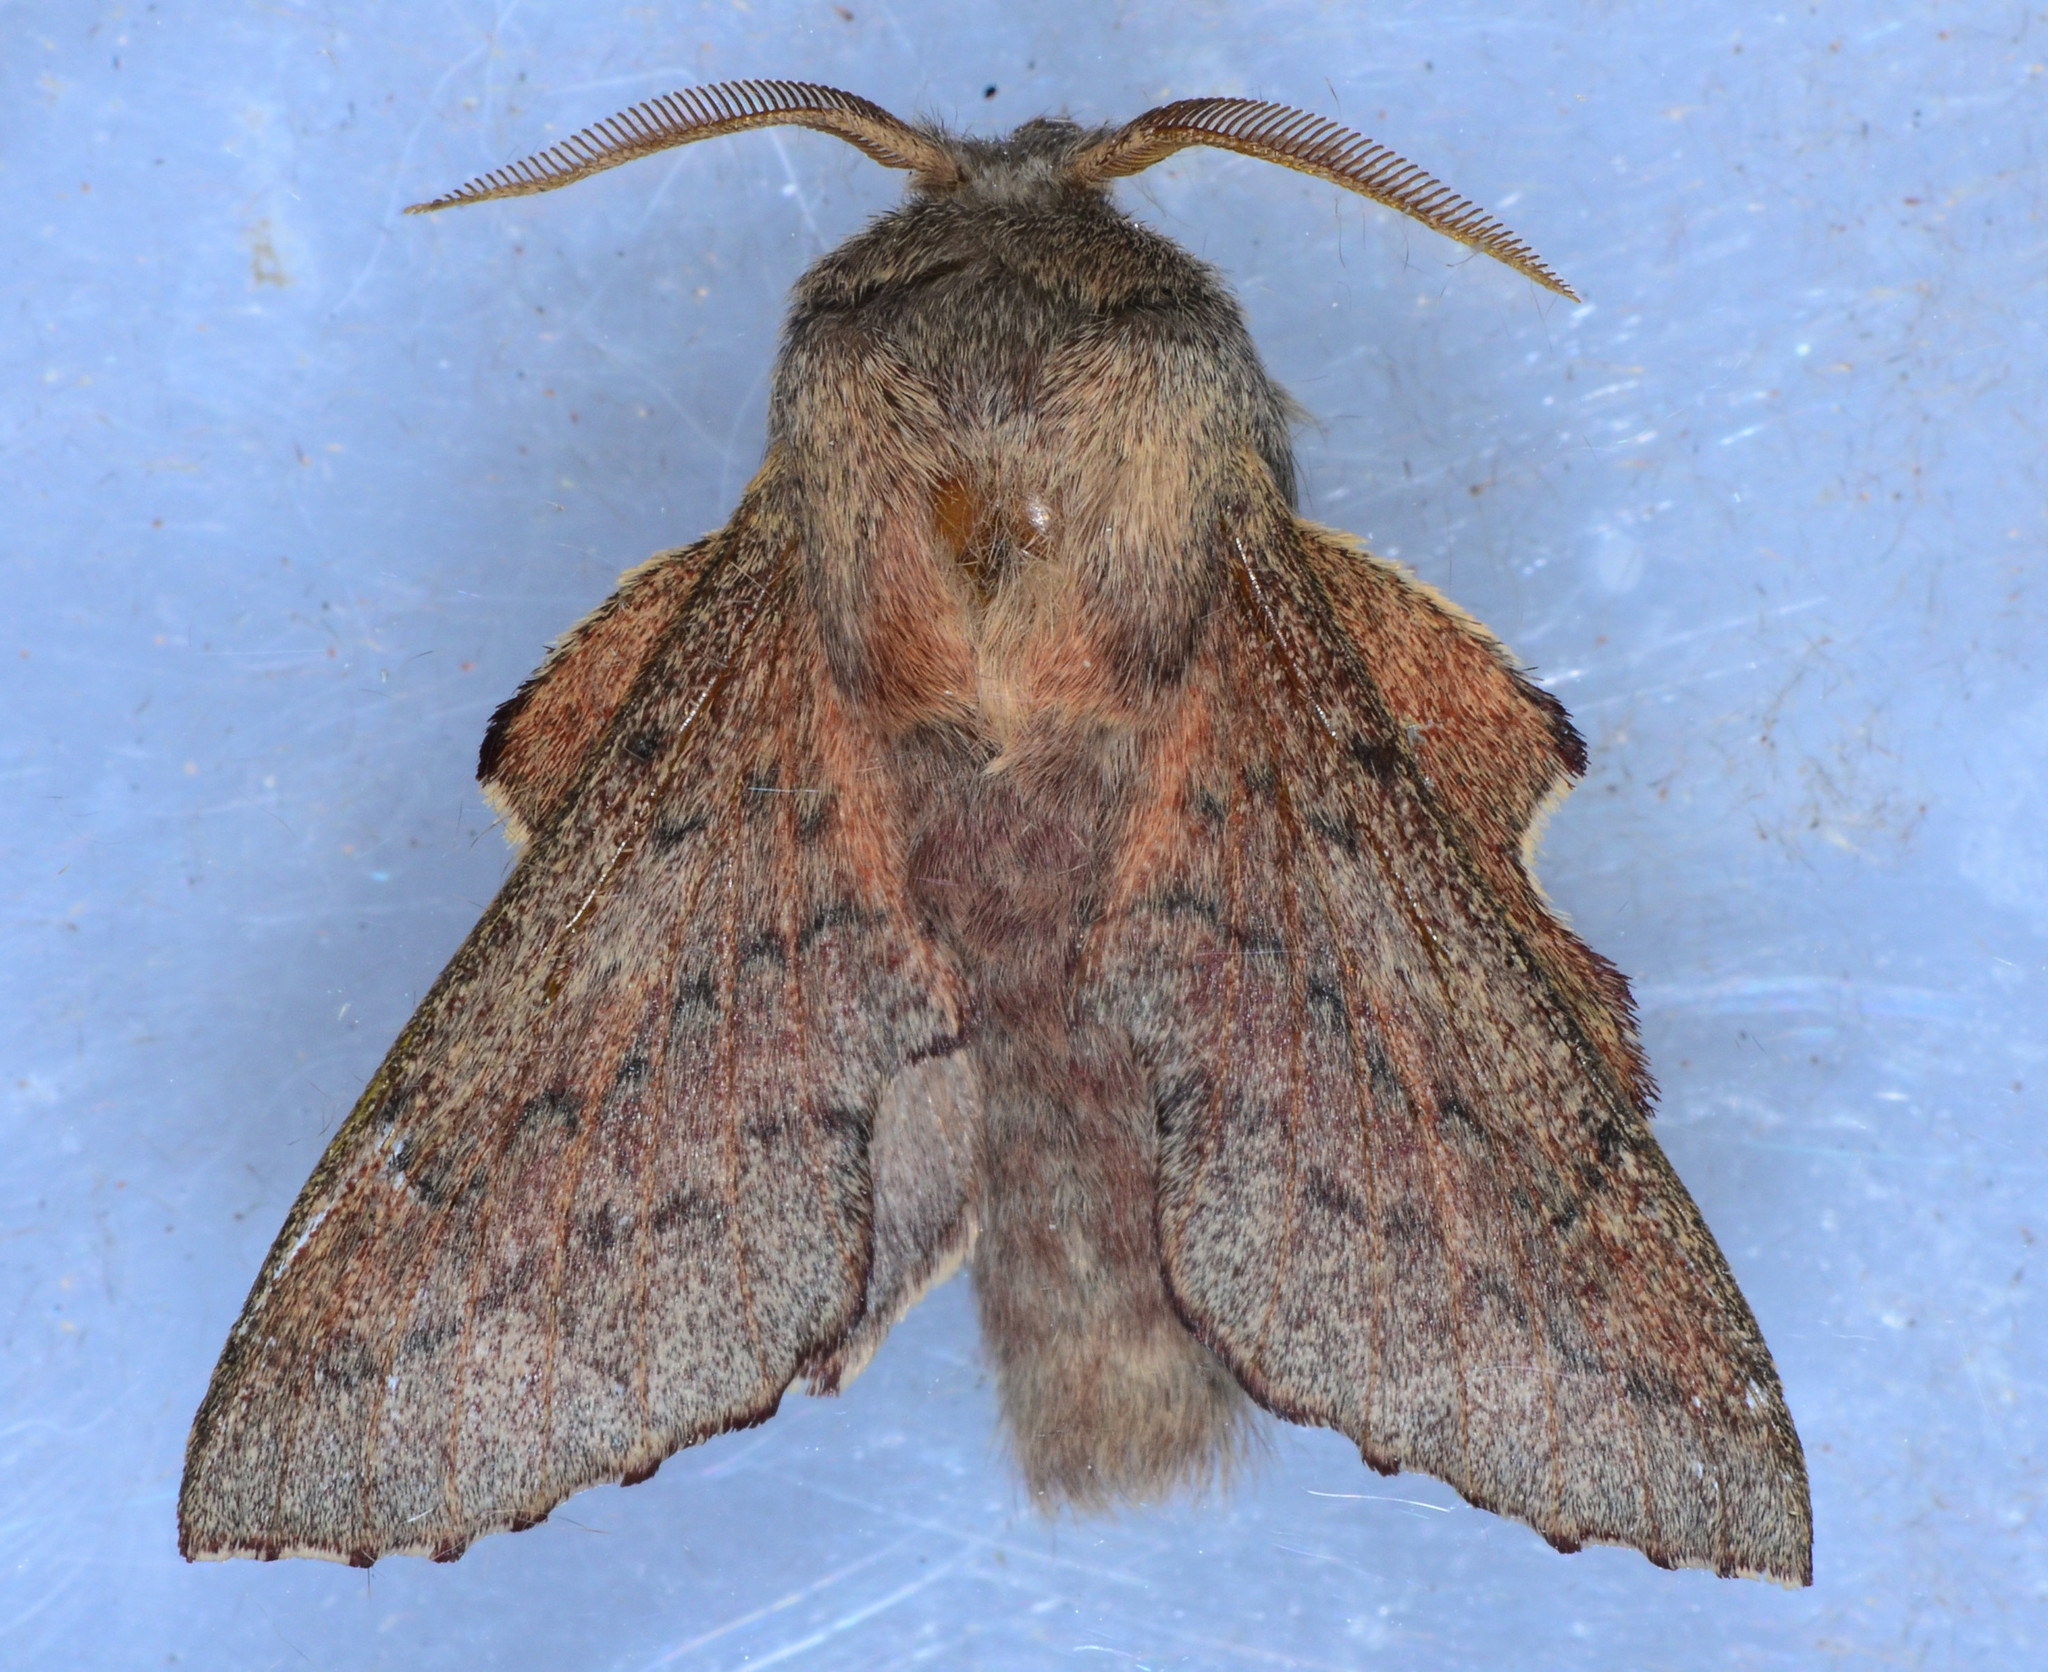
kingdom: Animalia
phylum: Arthropoda
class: Insecta
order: Lepidoptera
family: Lasiocampidae
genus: Phyllodesma
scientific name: Phyllodesma americana
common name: American lappet moth
